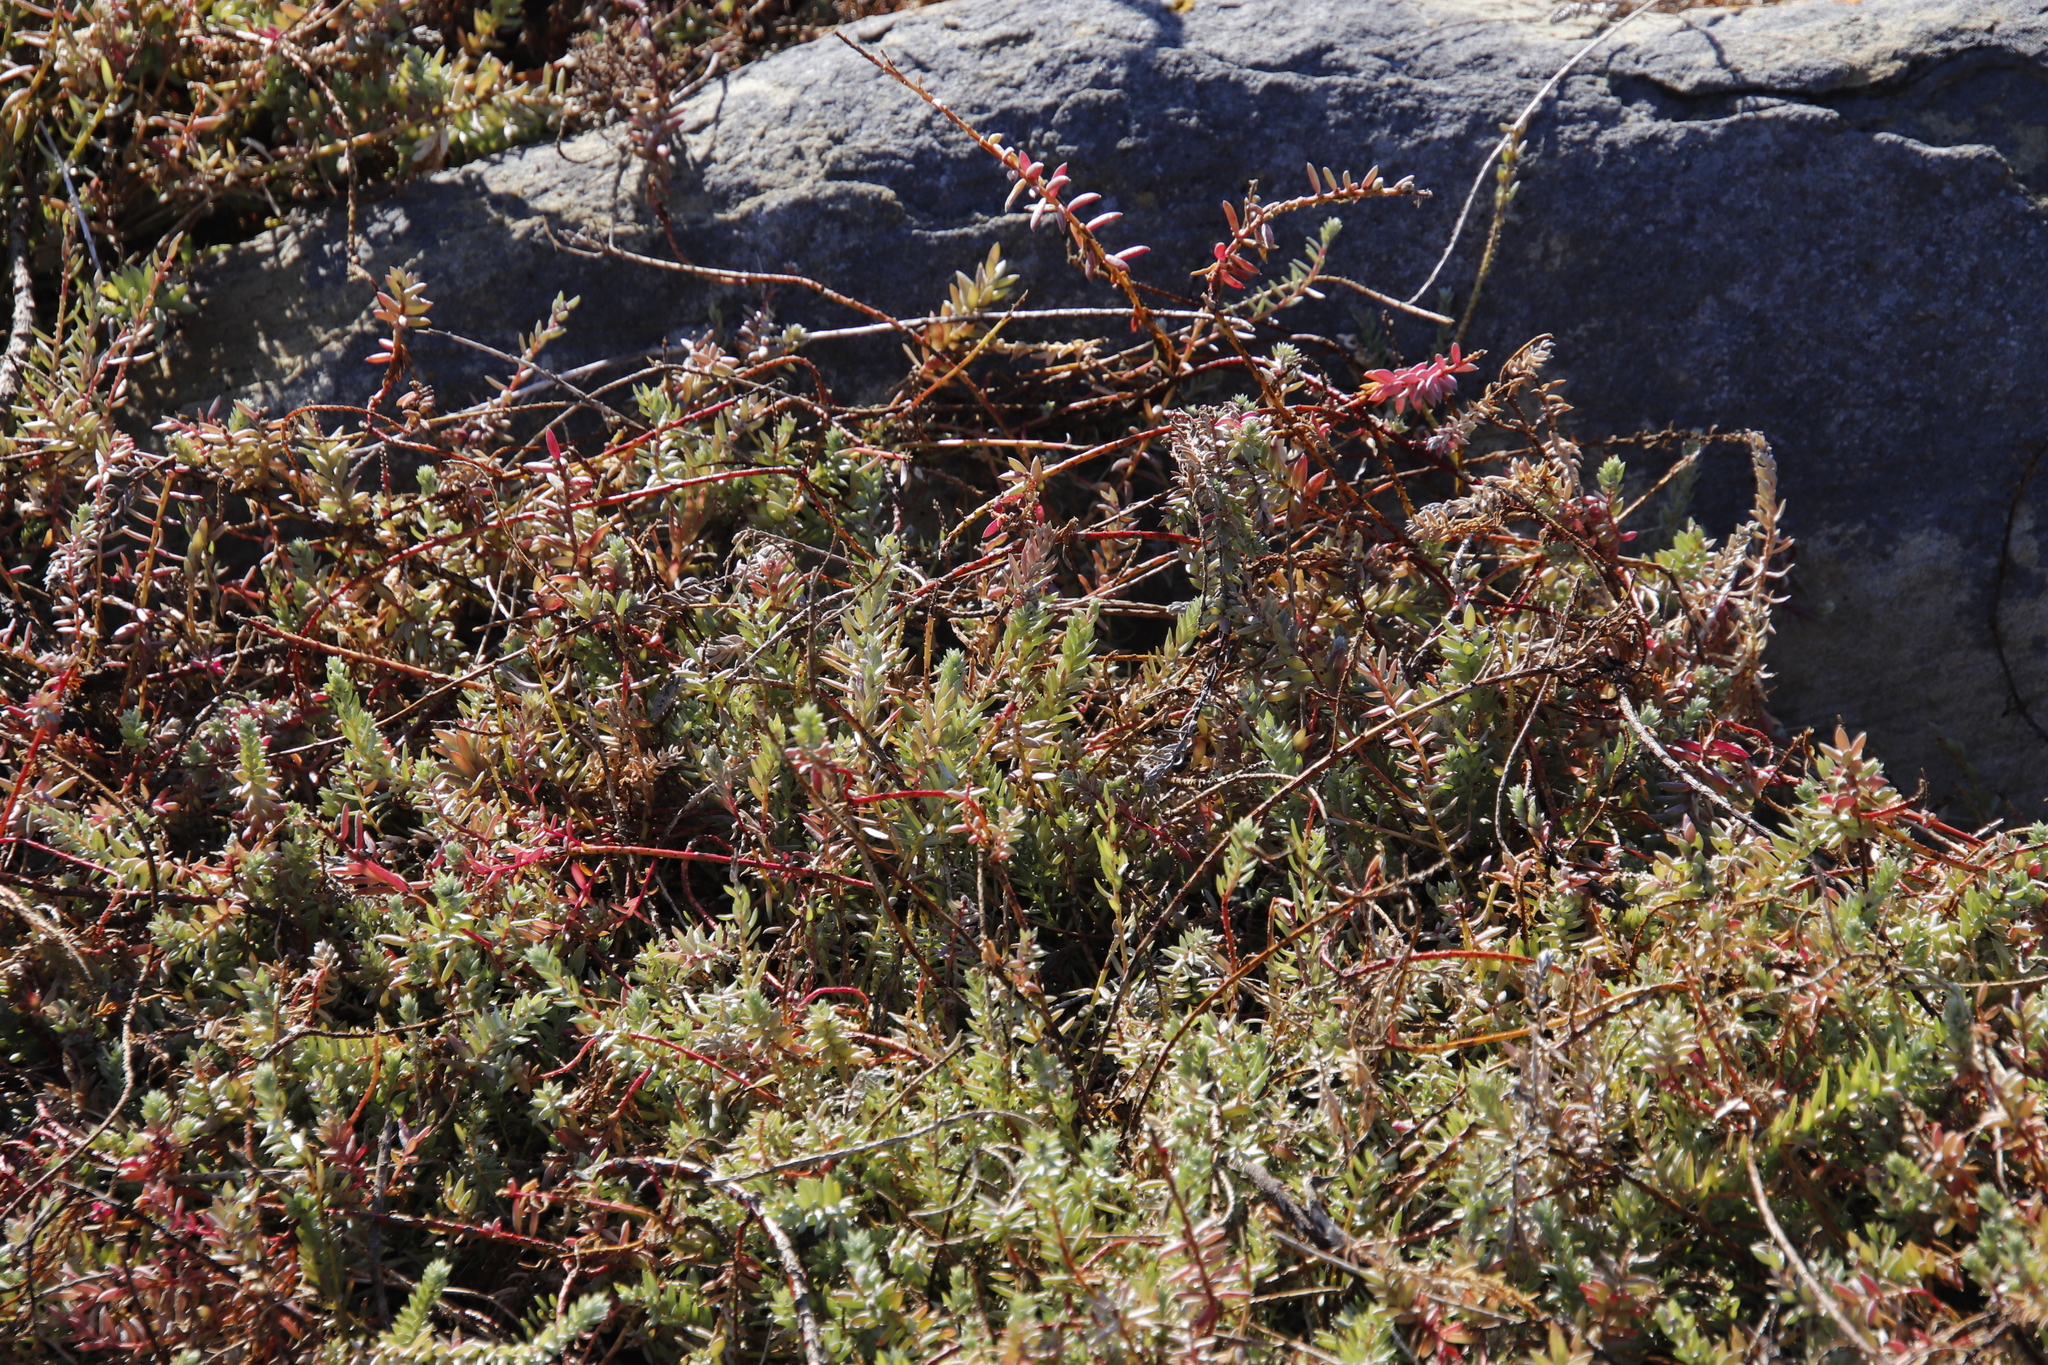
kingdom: Plantae
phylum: Tracheophyta
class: Magnoliopsida
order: Caryophyllales
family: Amaranthaceae
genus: Chenolea
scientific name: Chenolea diffusa
